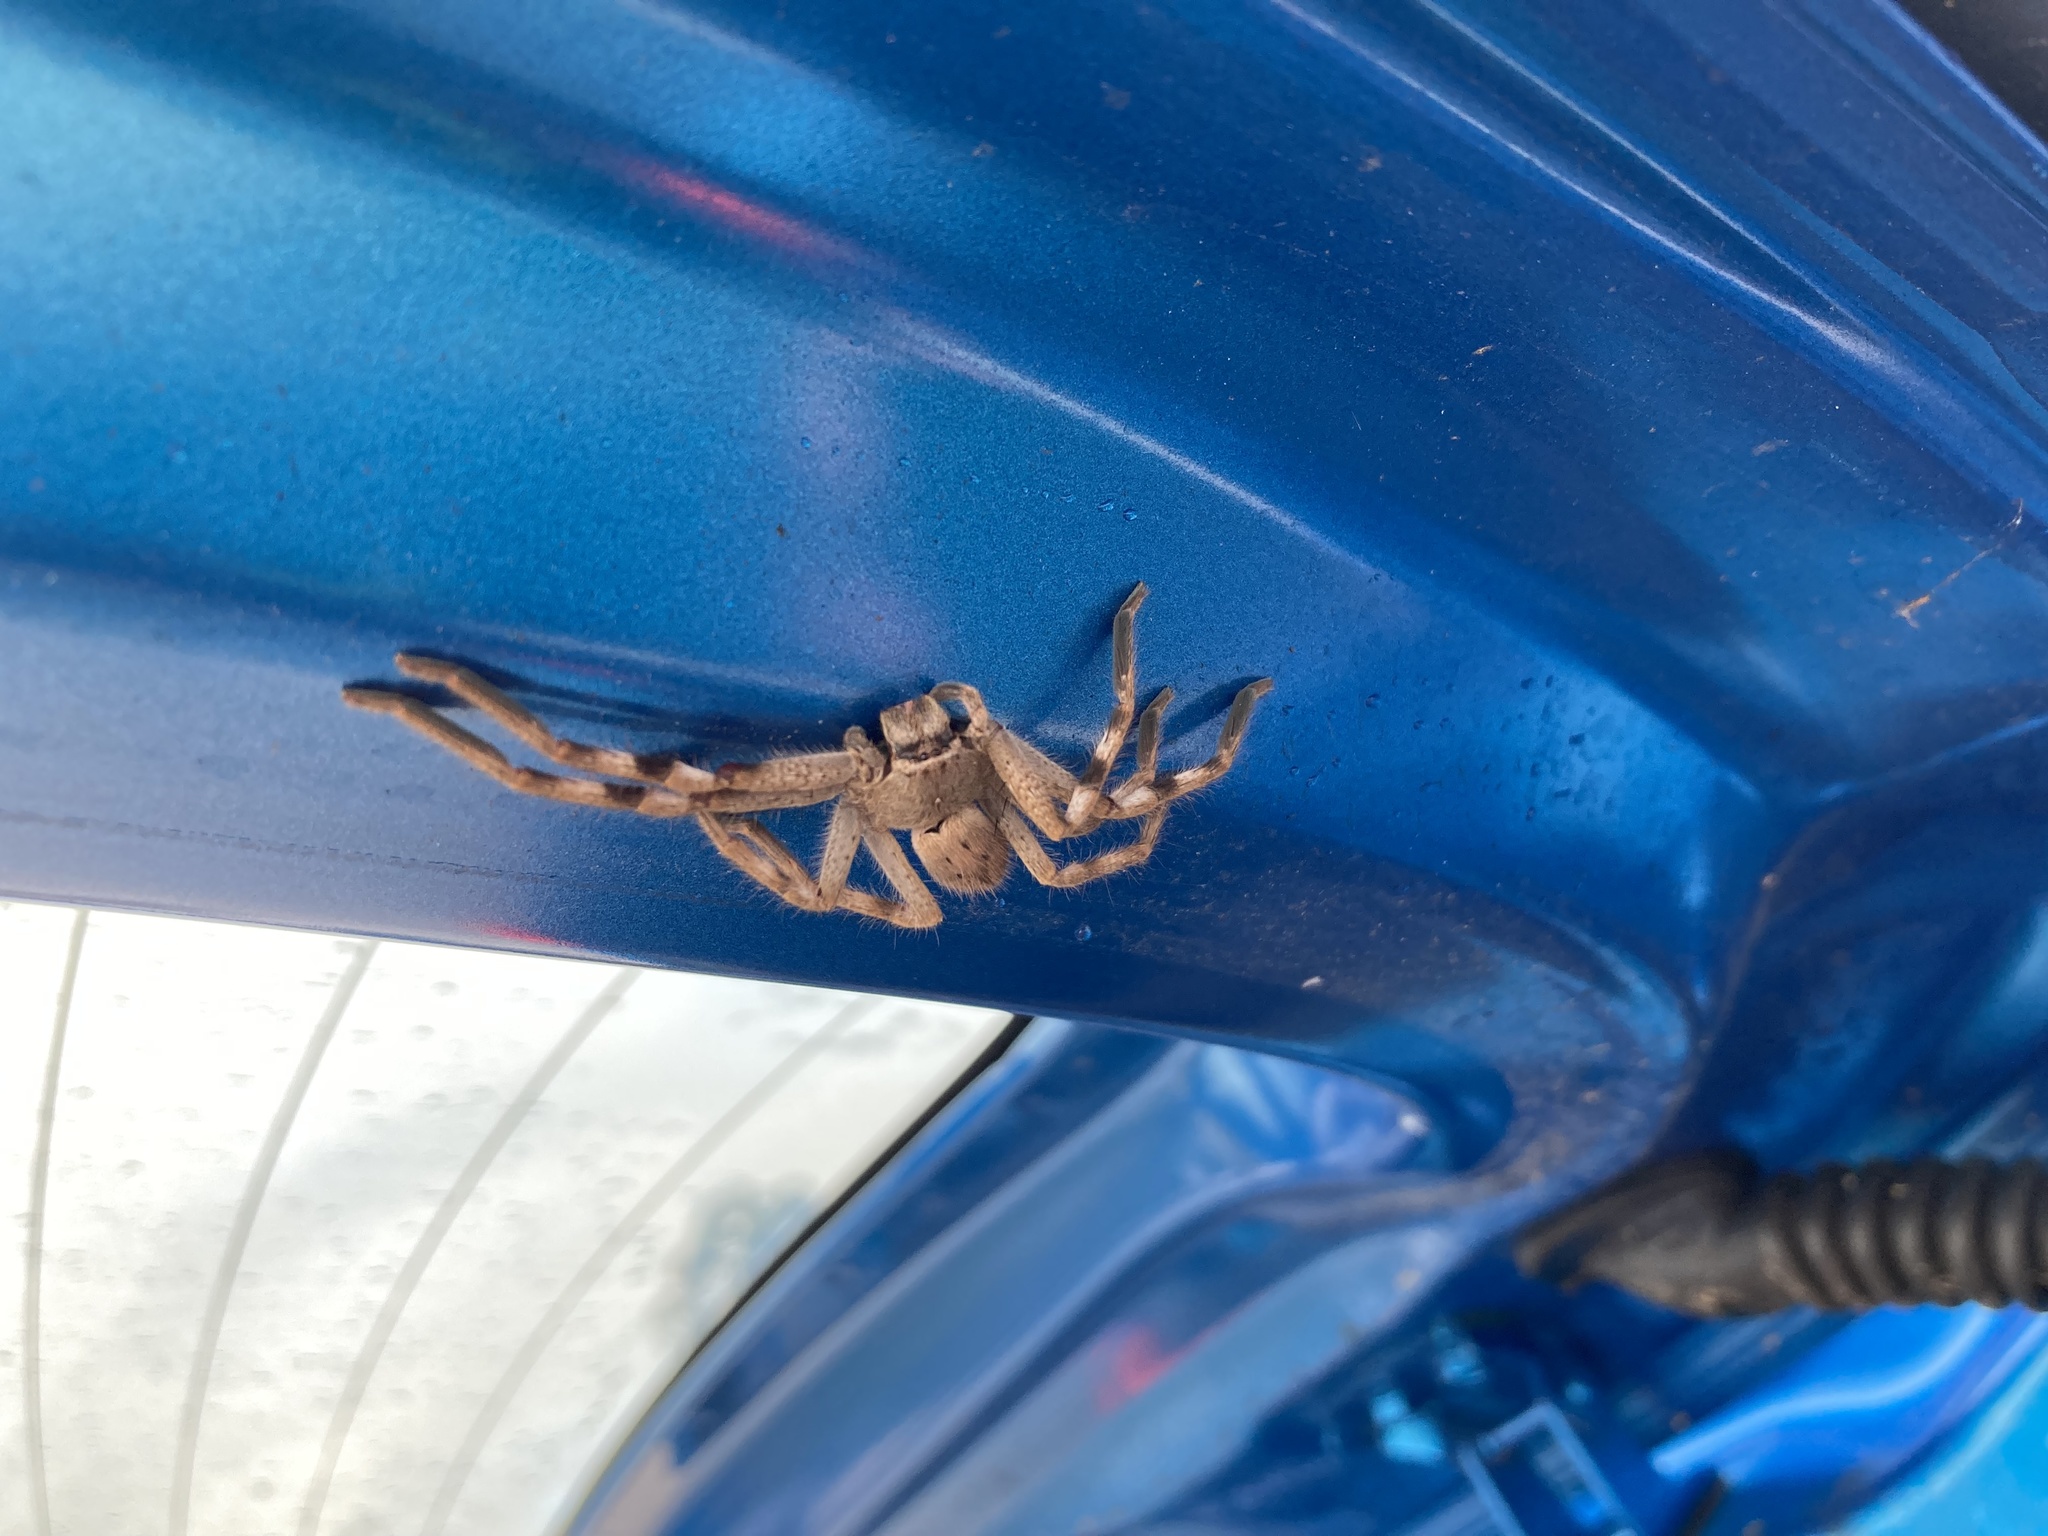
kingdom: Animalia
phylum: Arthropoda
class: Arachnida
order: Araneae
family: Sparassidae
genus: Isopedella
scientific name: Isopedella leai
